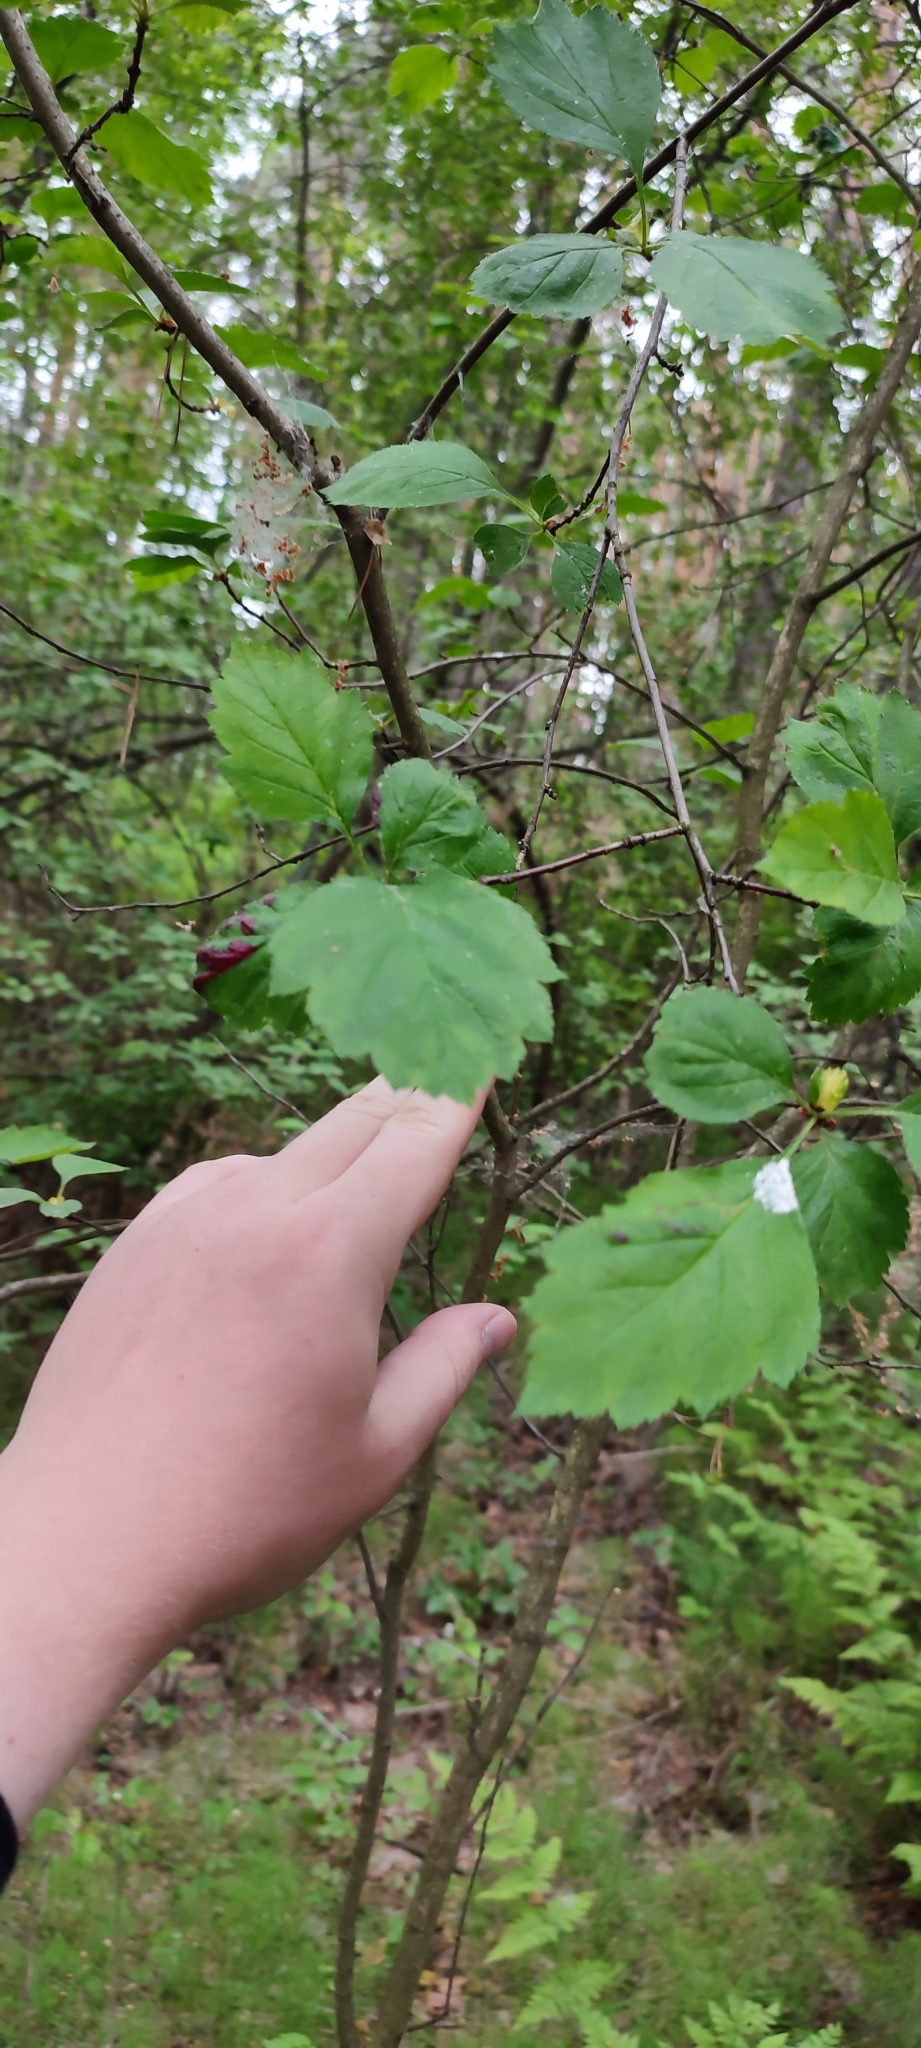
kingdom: Plantae
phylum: Tracheophyta
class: Magnoliopsida
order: Rosales
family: Rosaceae
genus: Crataegus
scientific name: Crataegus sanguinea
